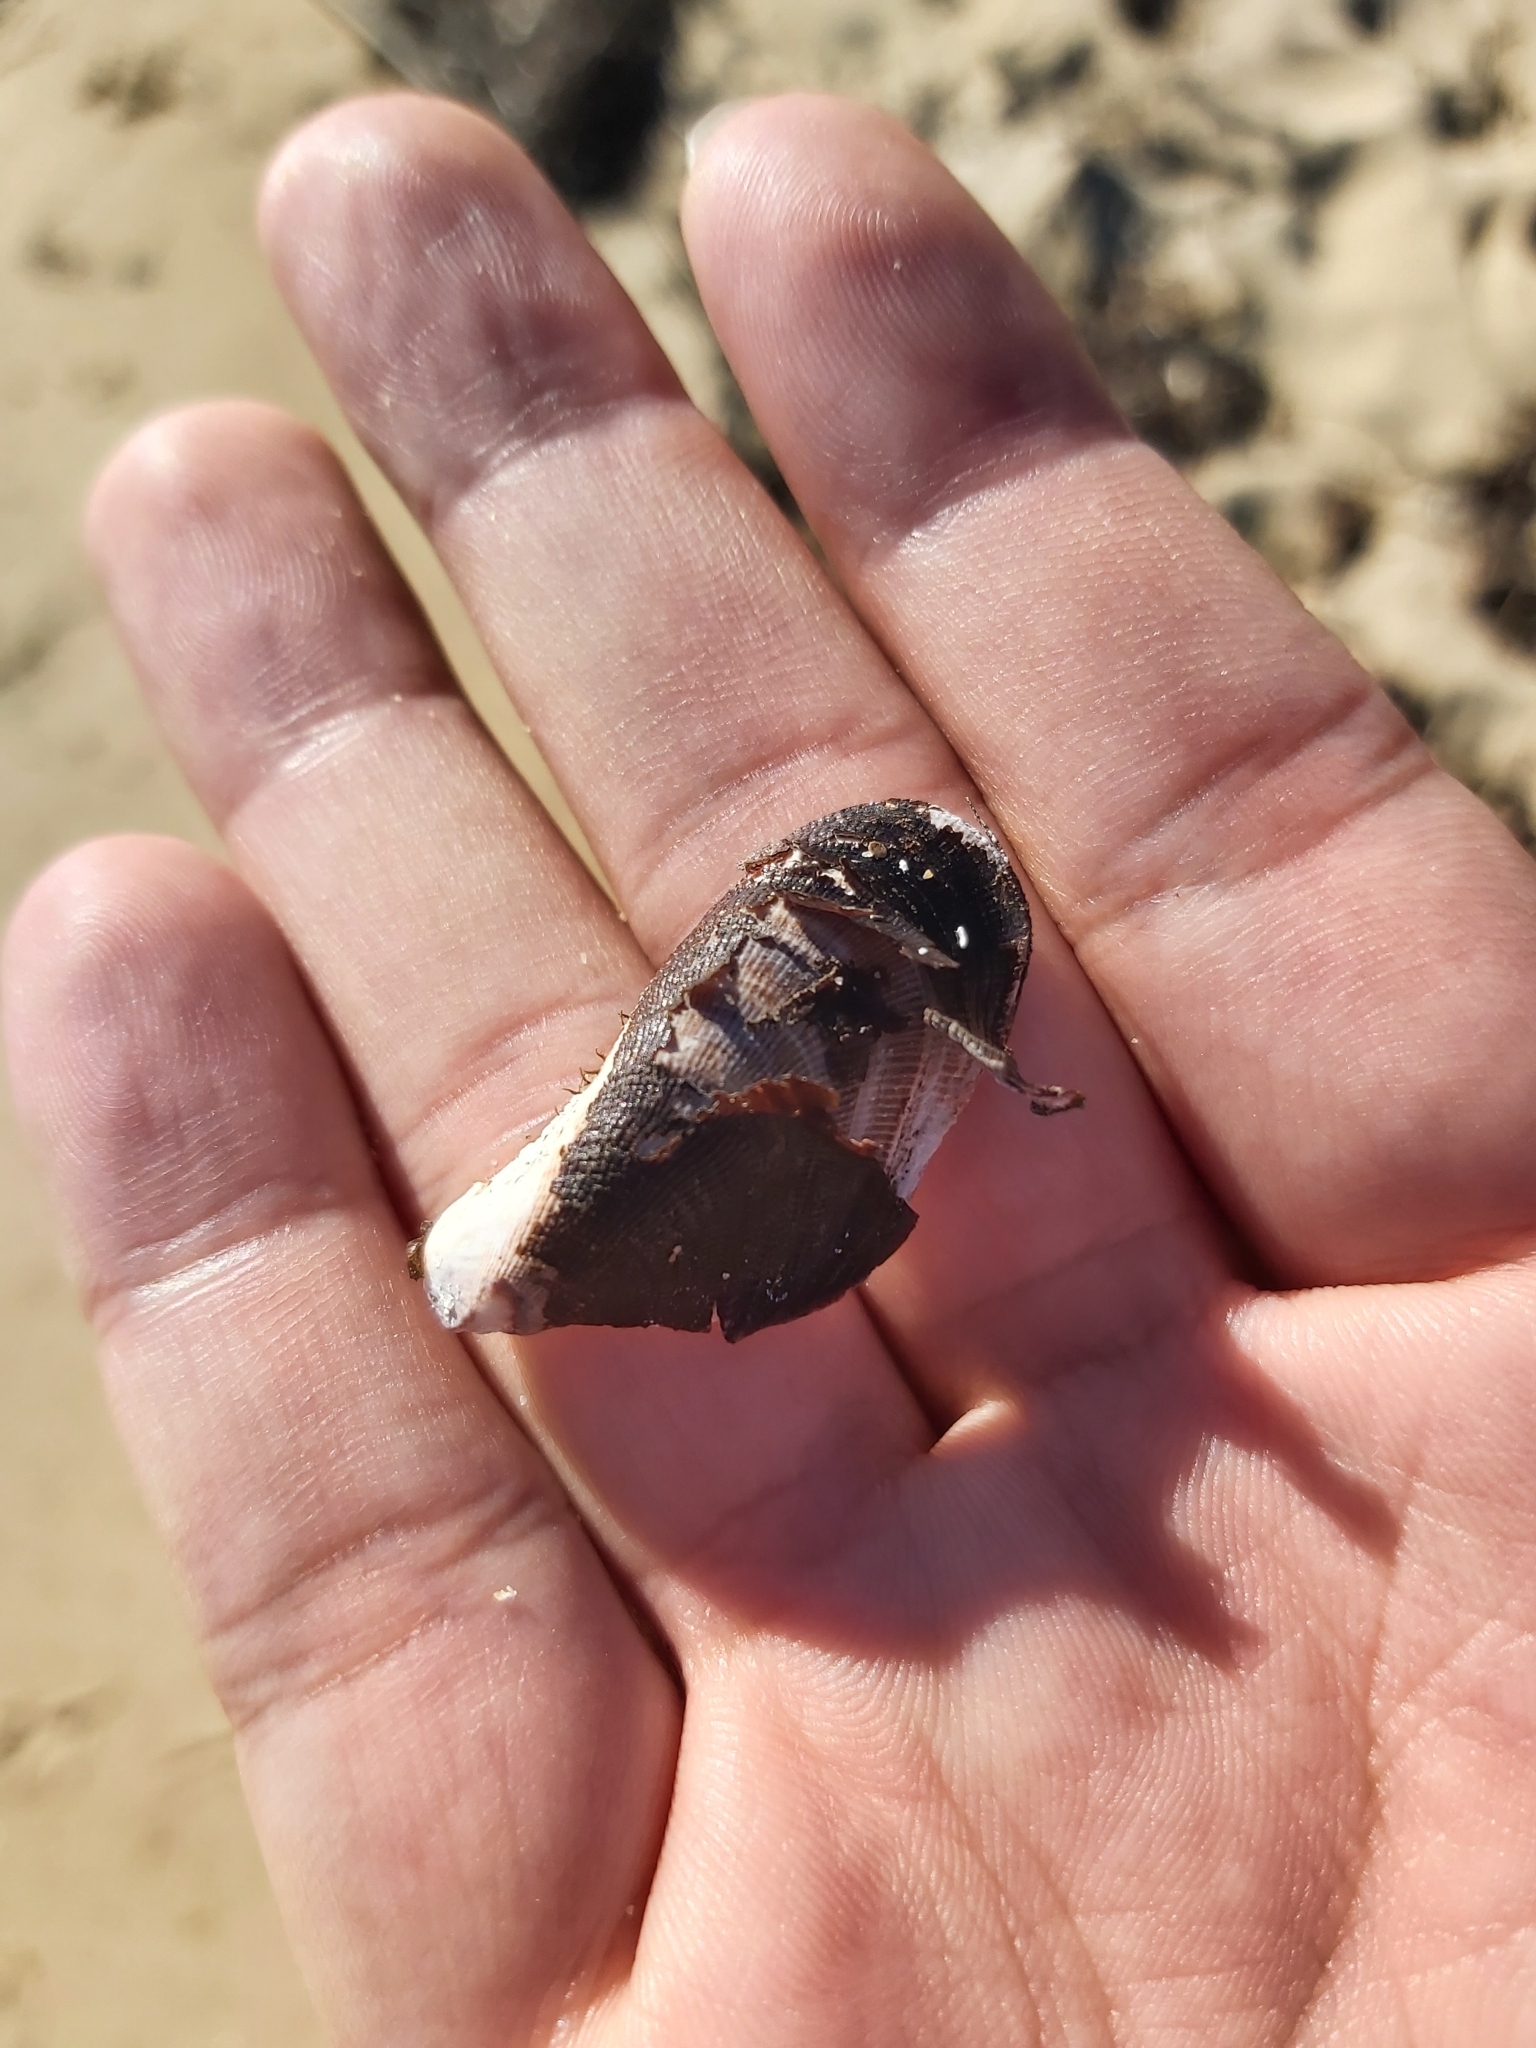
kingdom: Animalia
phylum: Mollusca
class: Bivalvia
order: Mytilida
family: Mytilidae
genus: Trichomya
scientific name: Trichomya hirsuta
